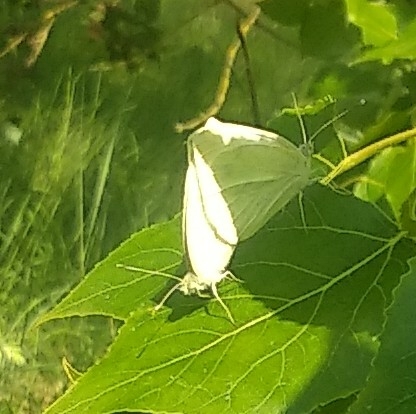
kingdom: Animalia
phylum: Arthropoda
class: Insecta
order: Lepidoptera
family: Pieridae
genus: Pieris
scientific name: Pieris rapae
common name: Small white
